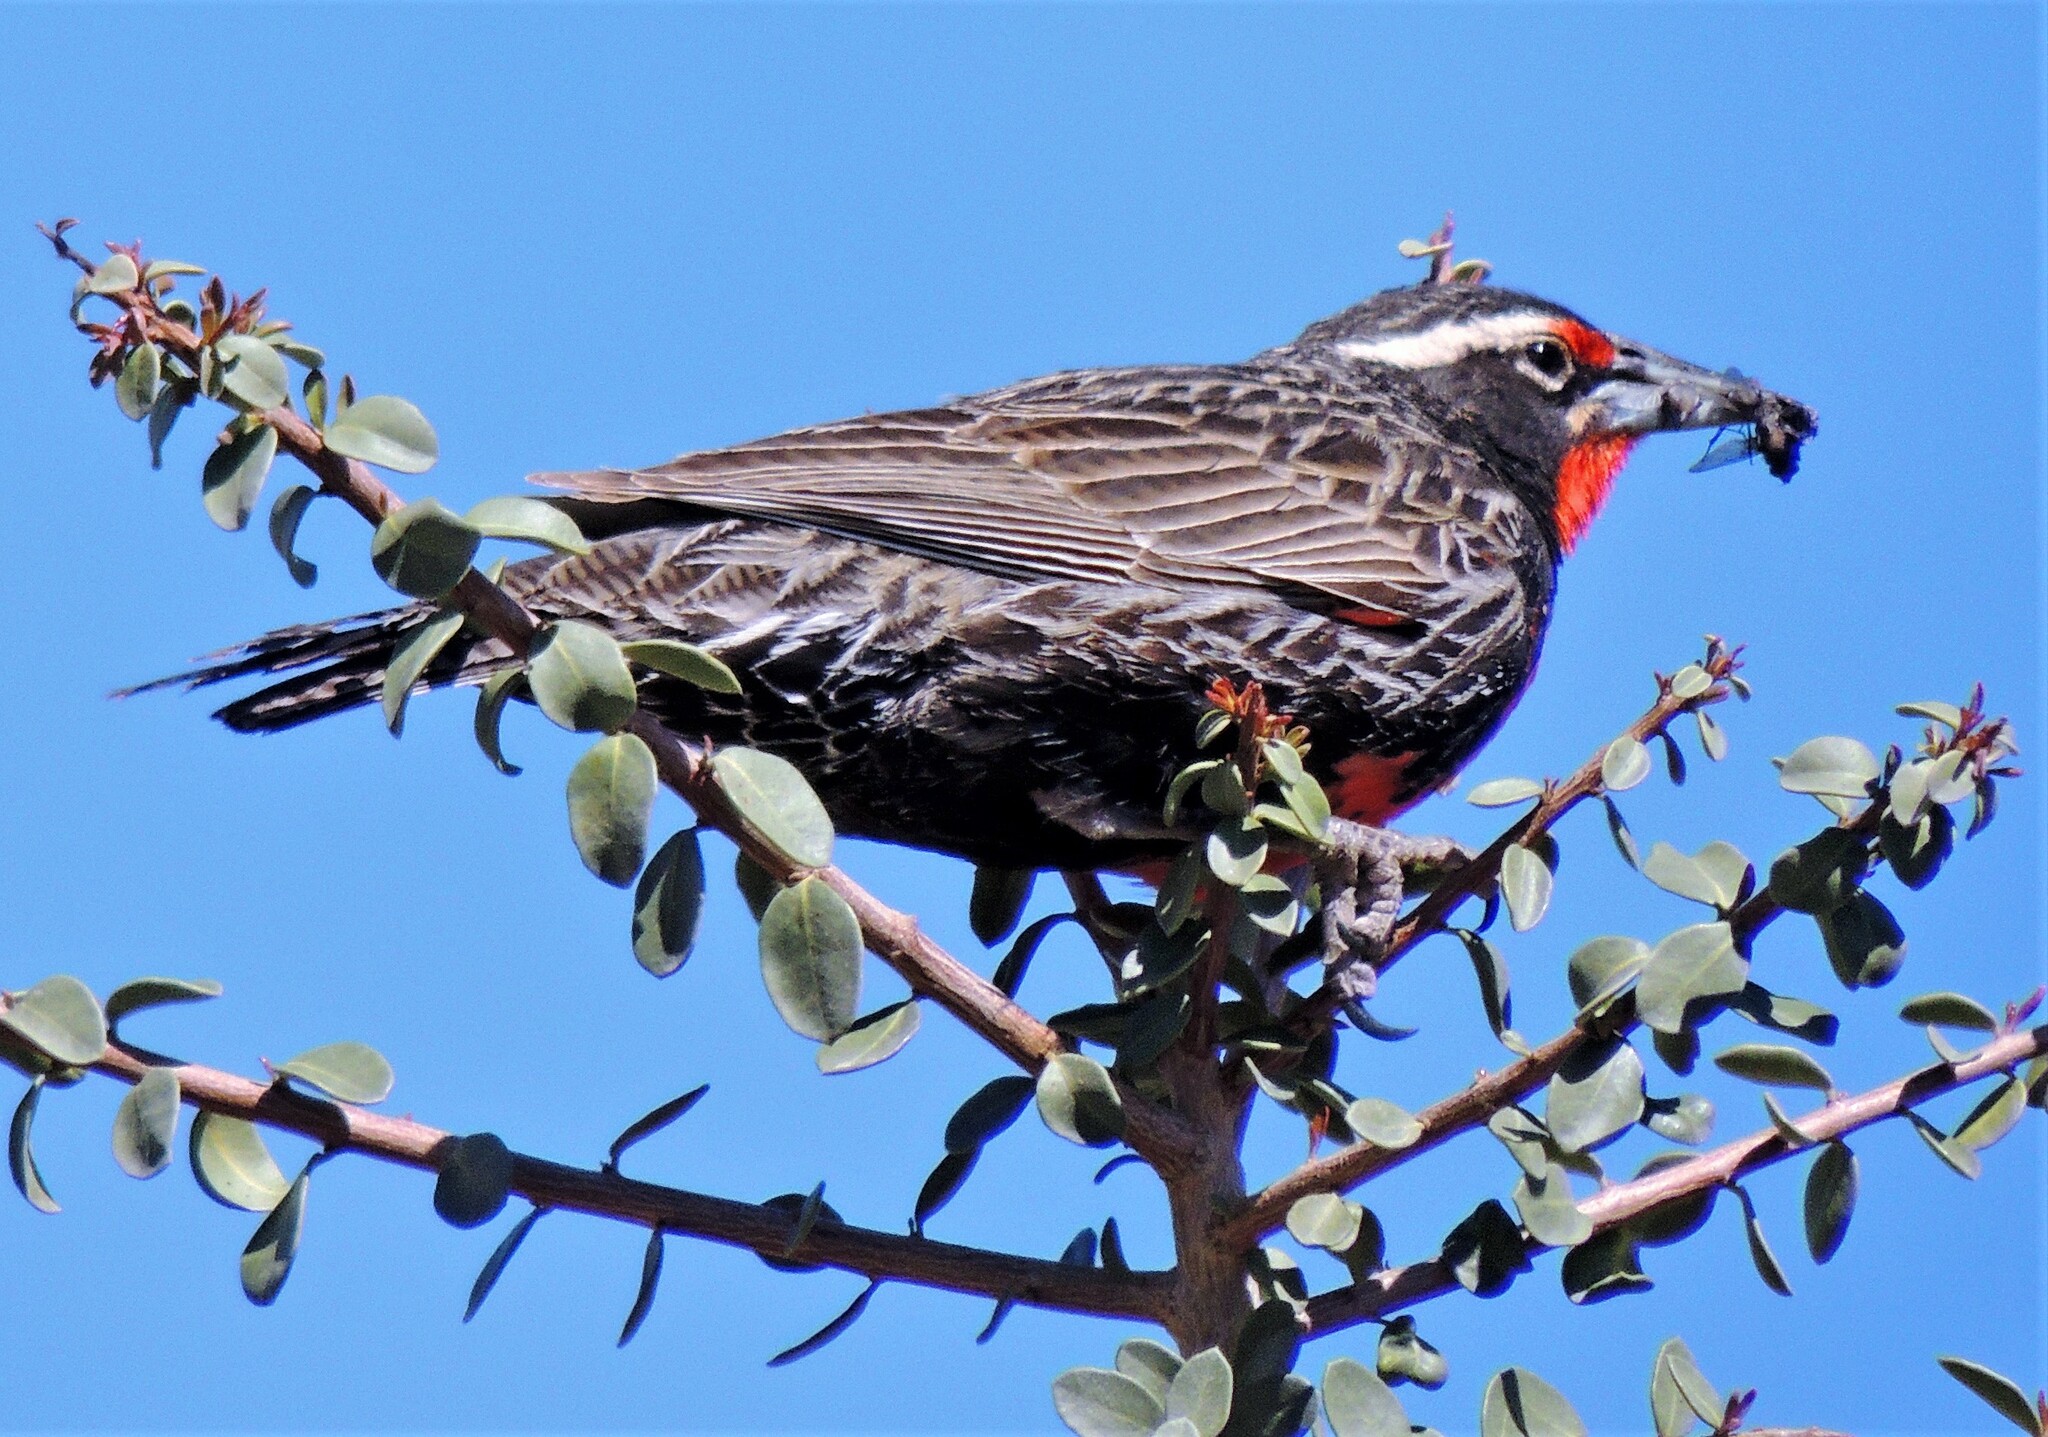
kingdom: Animalia
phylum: Chordata
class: Aves
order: Passeriformes
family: Icteridae
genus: Sturnella
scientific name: Sturnella loyca
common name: Long-tailed meadowlark
